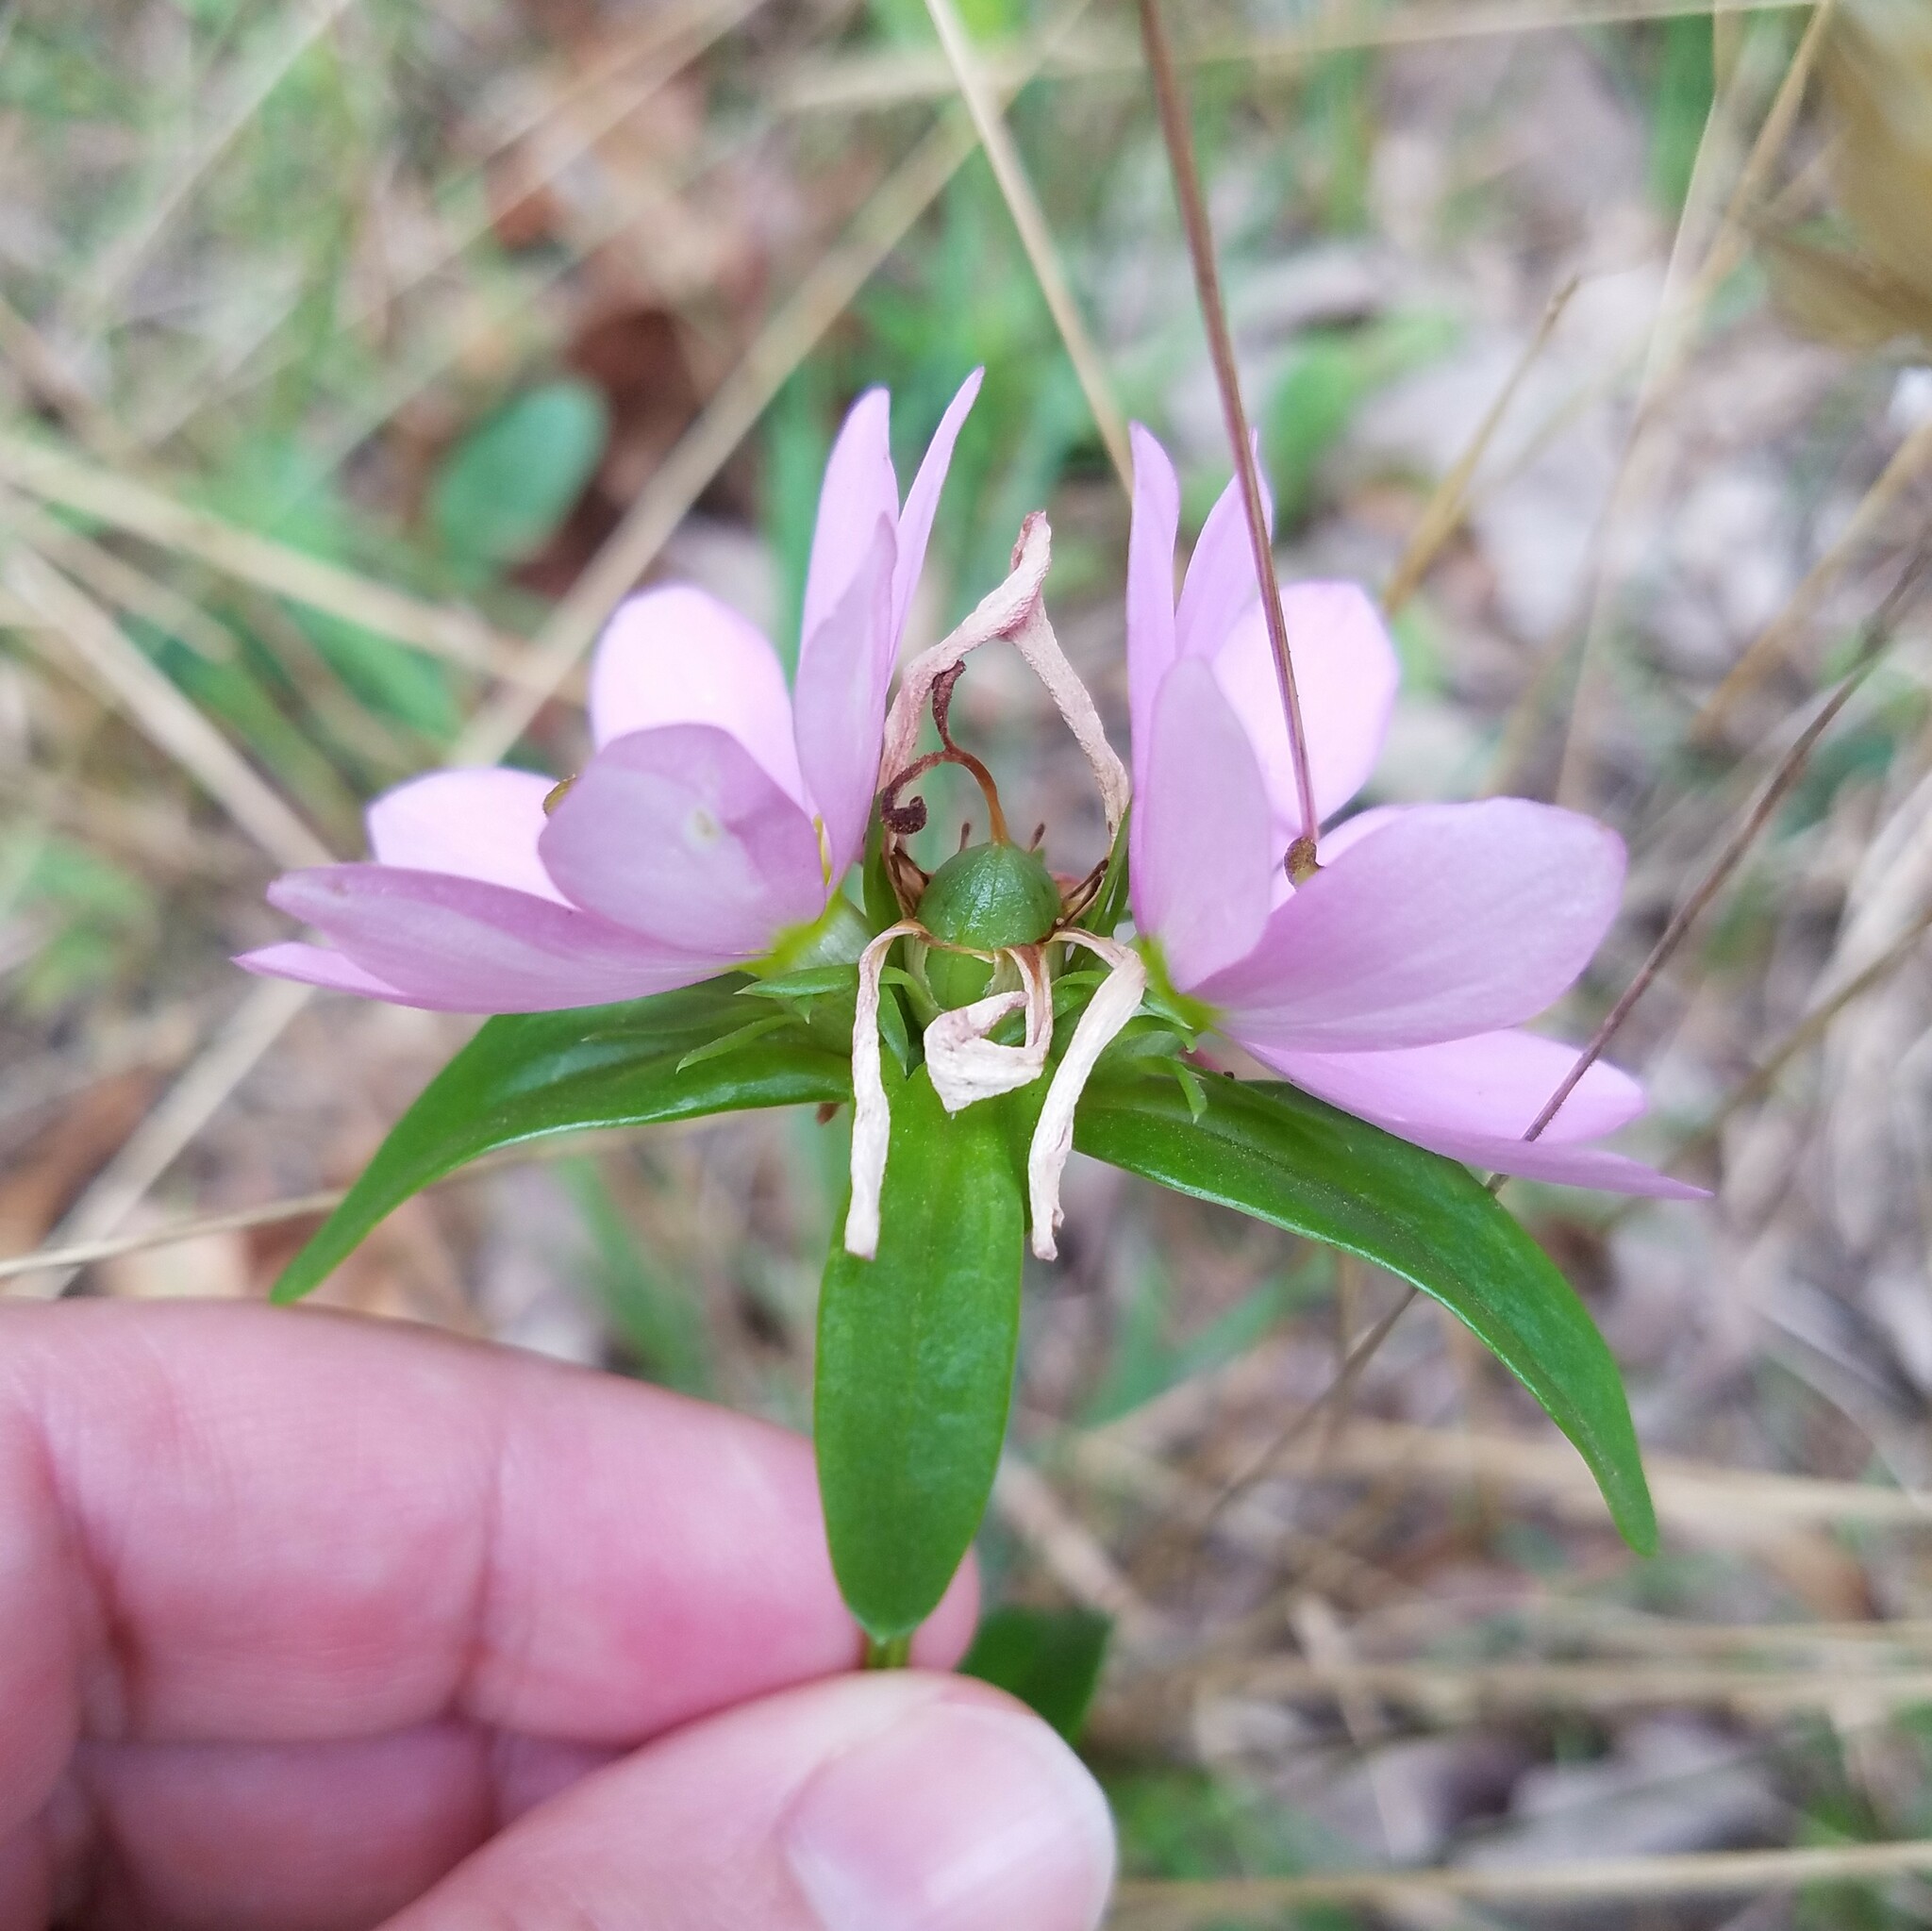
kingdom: Plantae
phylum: Tracheophyta
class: Magnoliopsida
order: Gentianales
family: Gentianaceae
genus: Sabatia
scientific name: Sabatia capitata
